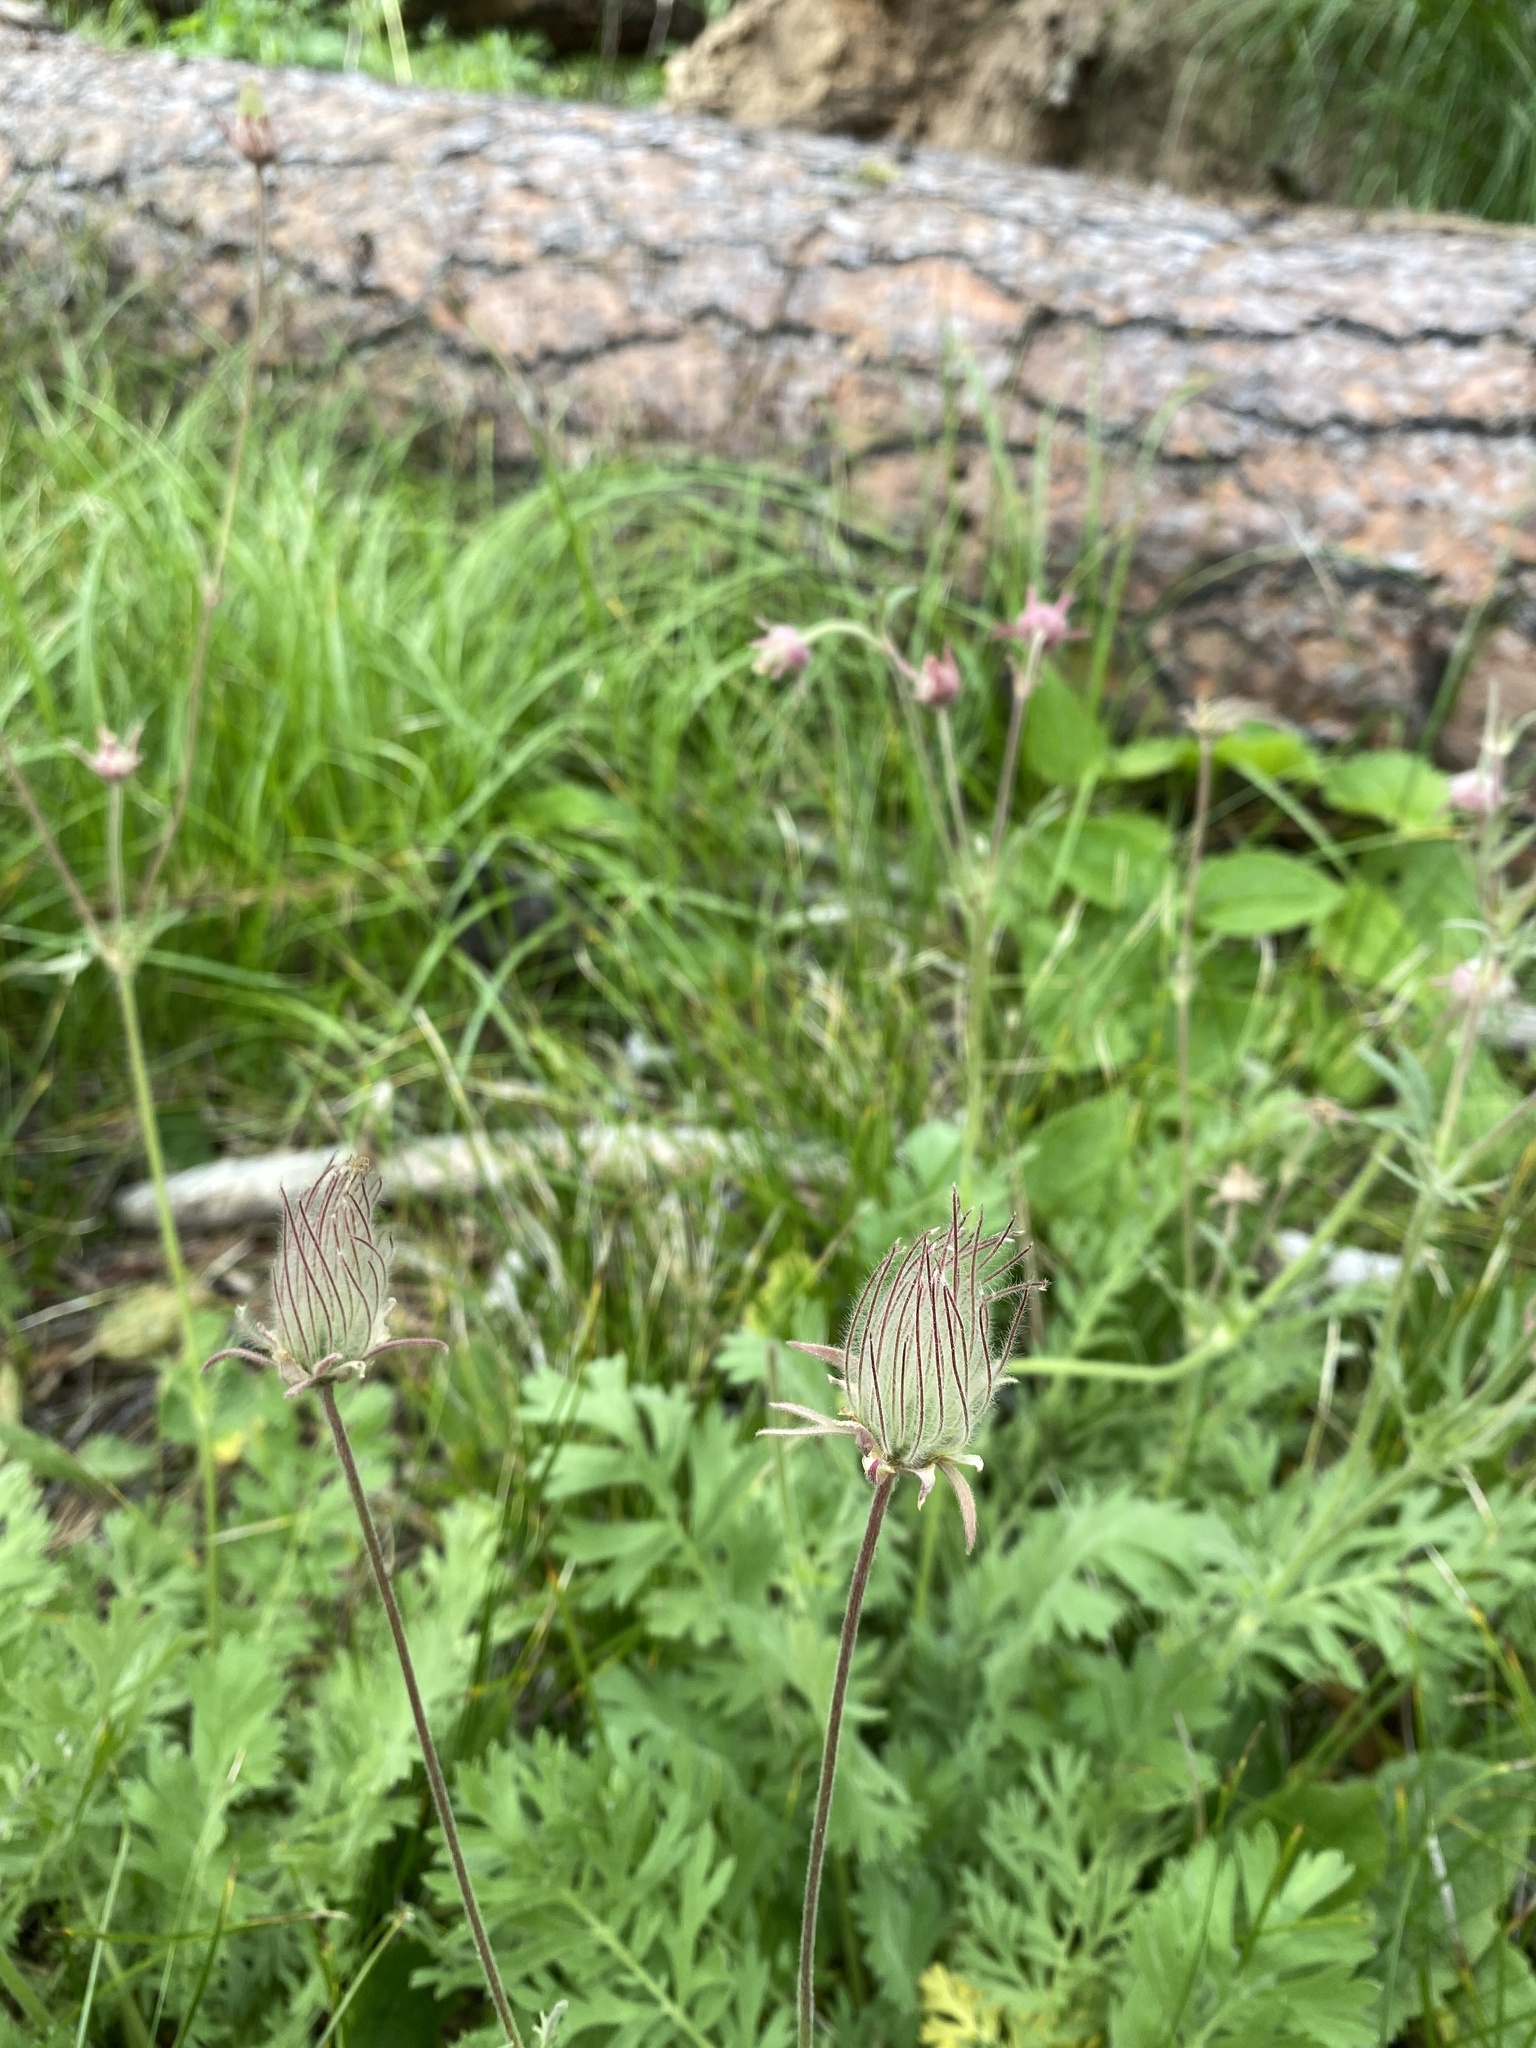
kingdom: Plantae
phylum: Tracheophyta
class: Magnoliopsida
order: Rosales
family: Rosaceae
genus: Geum
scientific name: Geum triflorum
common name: Old man's whiskers
